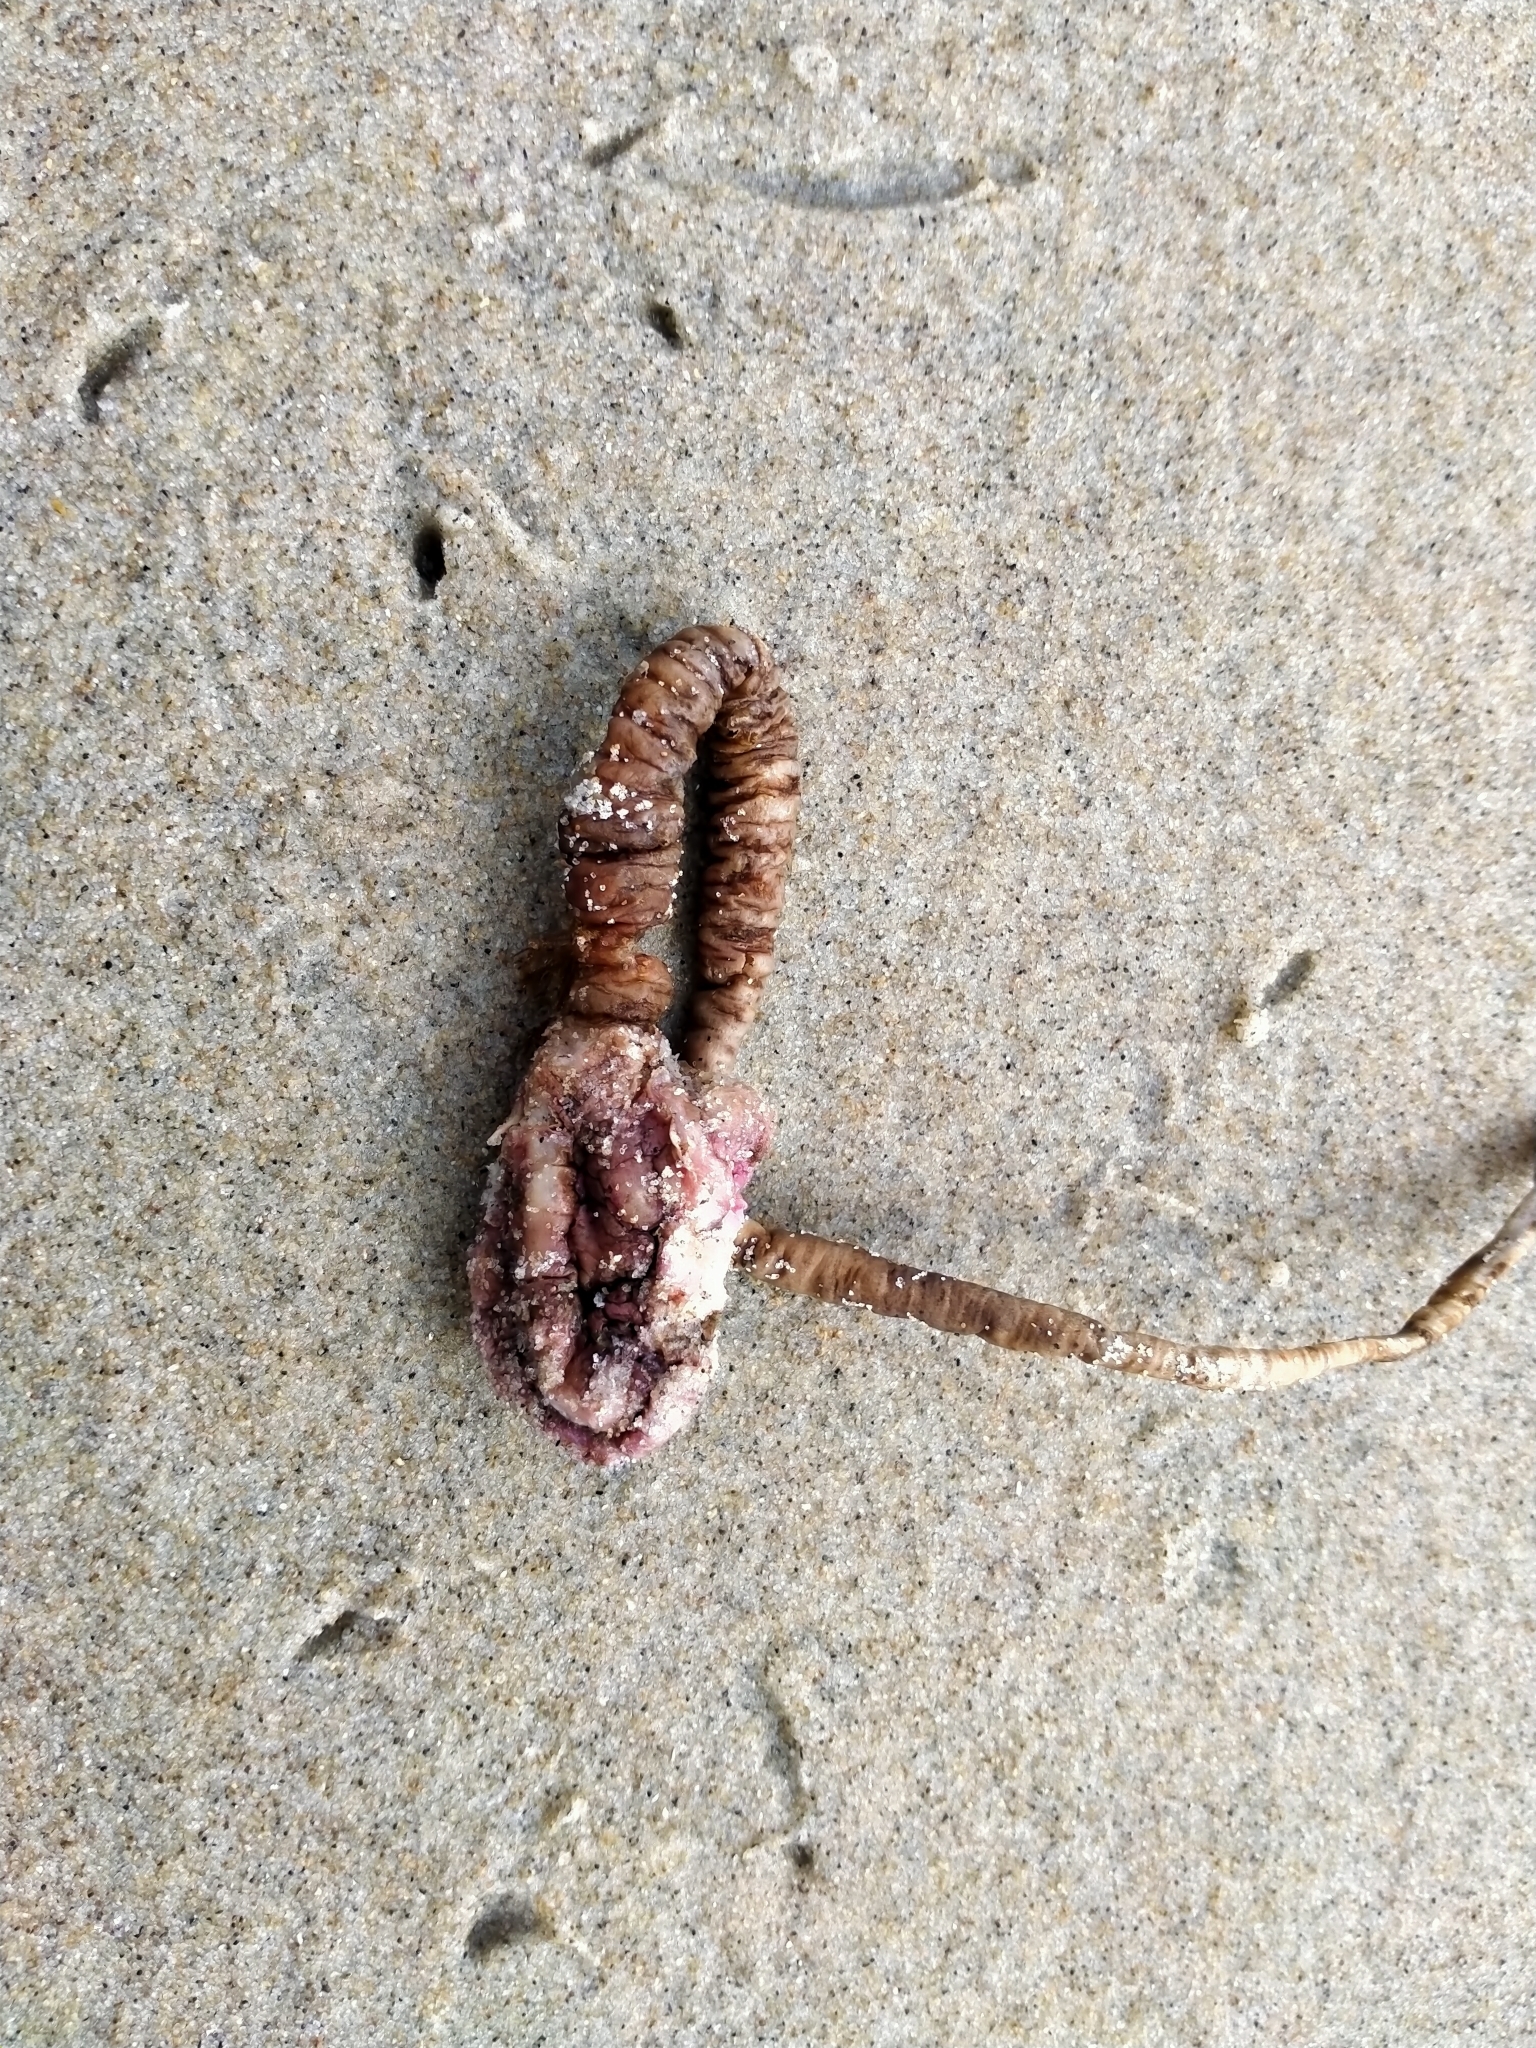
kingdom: Animalia
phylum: Chordata
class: Ascidiacea
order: Stolidobranchia
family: Pyuridae
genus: Pyura
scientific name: Pyura pachydermatina
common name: Sea tulip
